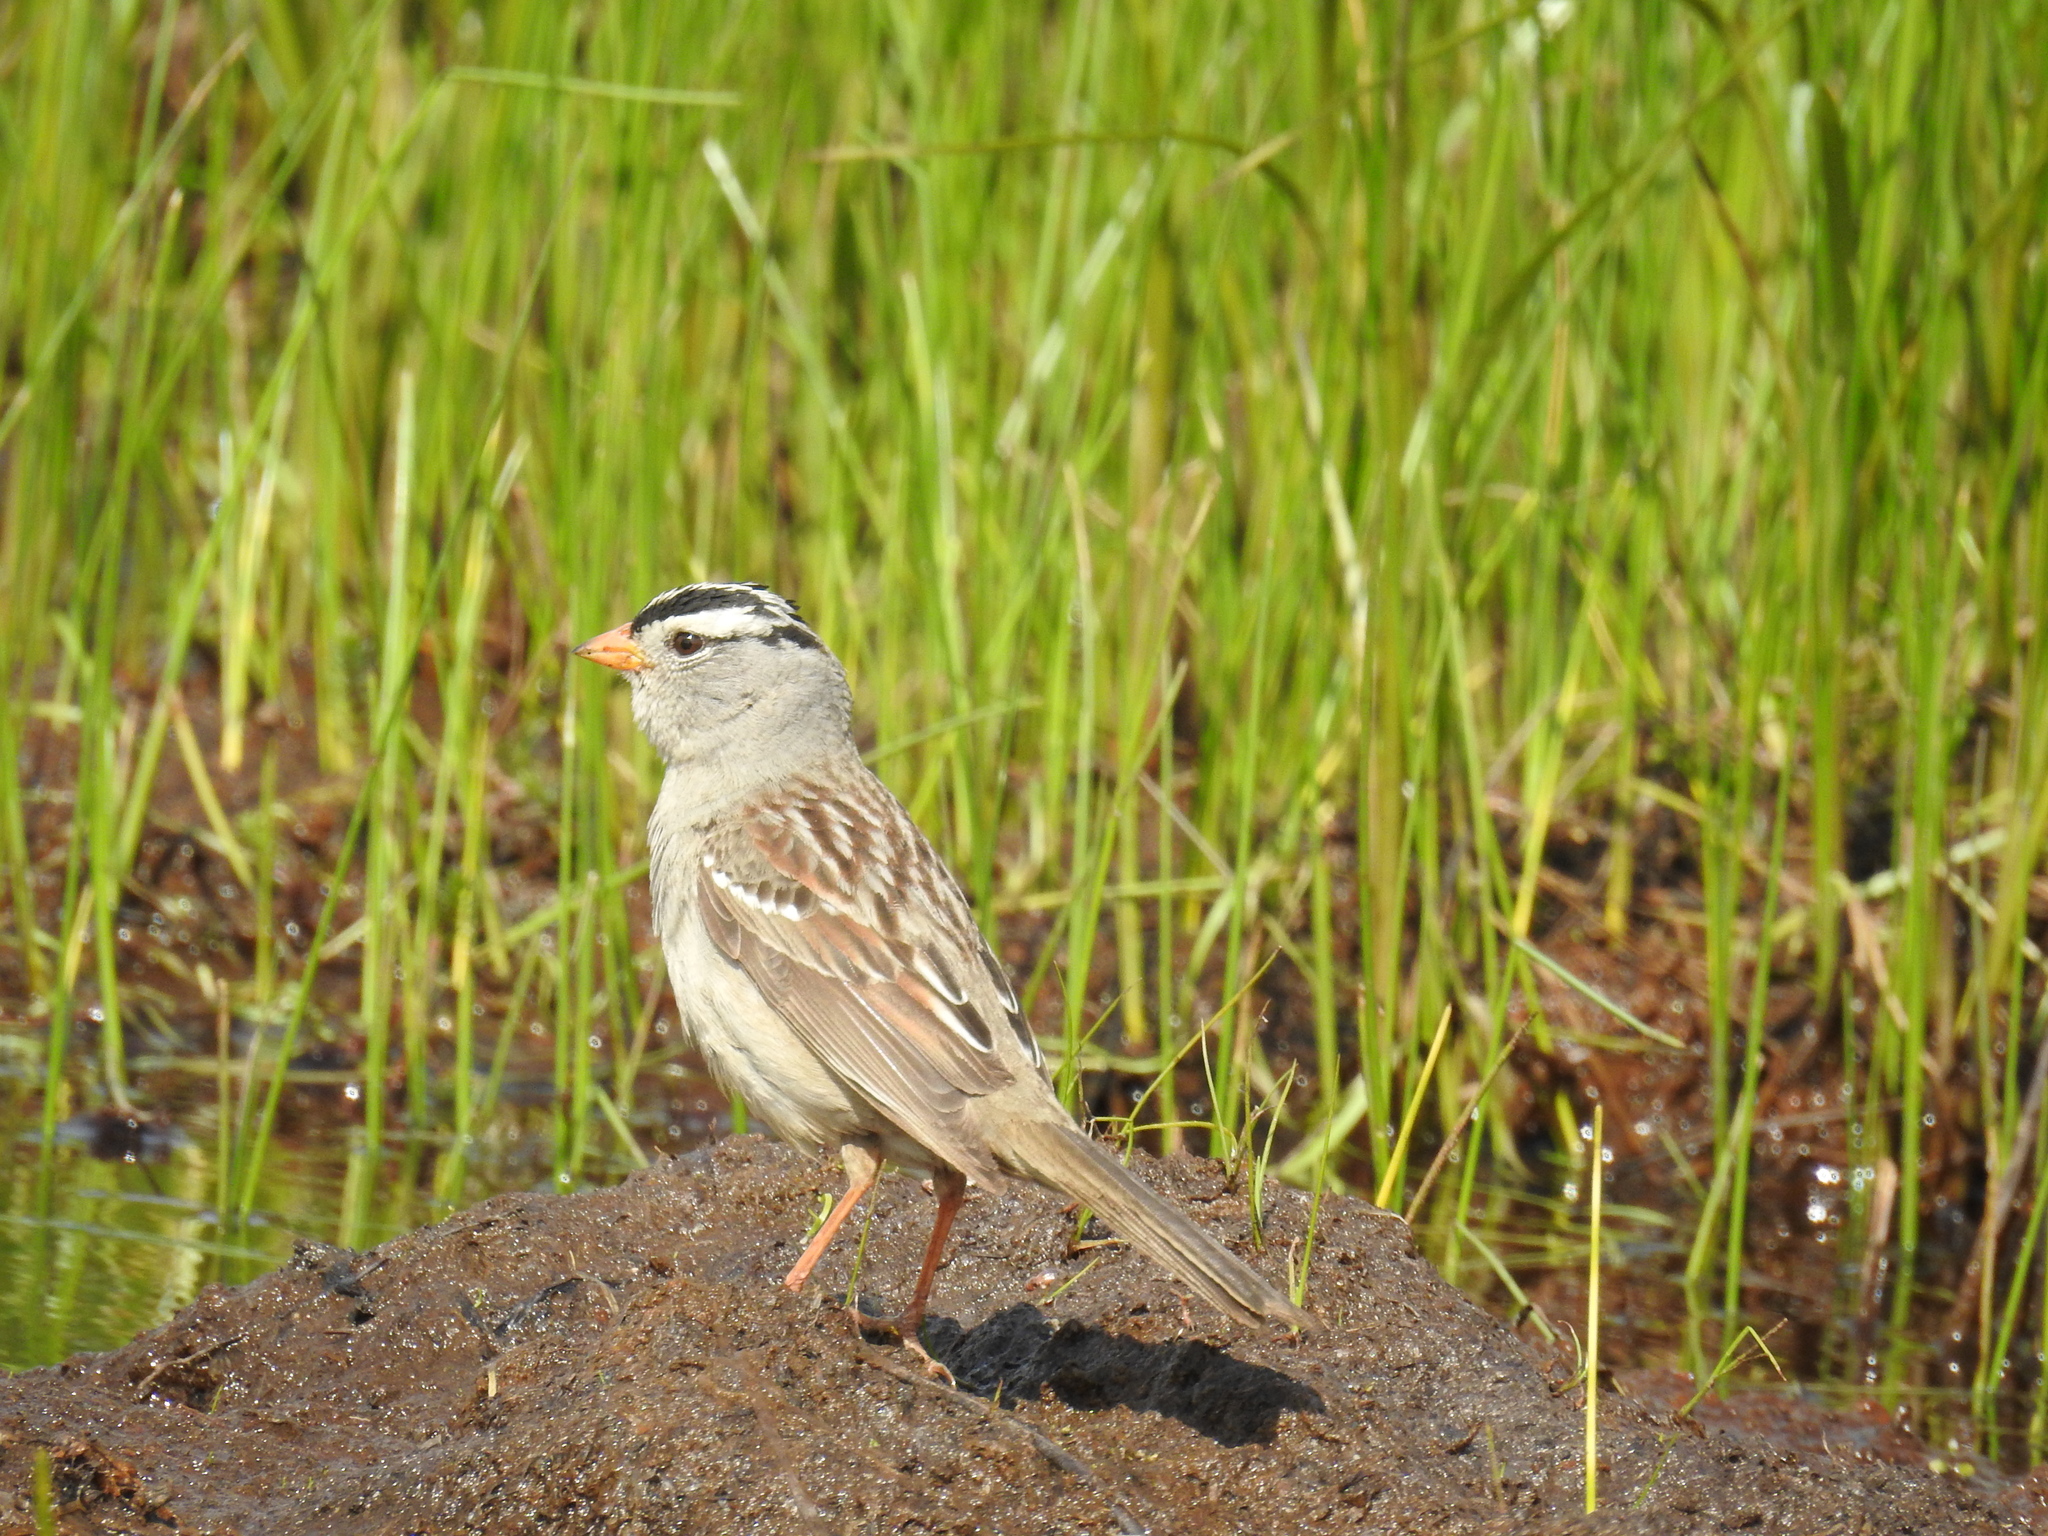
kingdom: Animalia
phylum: Chordata
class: Aves
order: Passeriformes
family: Passerellidae
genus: Zonotrichia
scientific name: Zonotrichia leucophrys
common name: White-crowned sparrow
